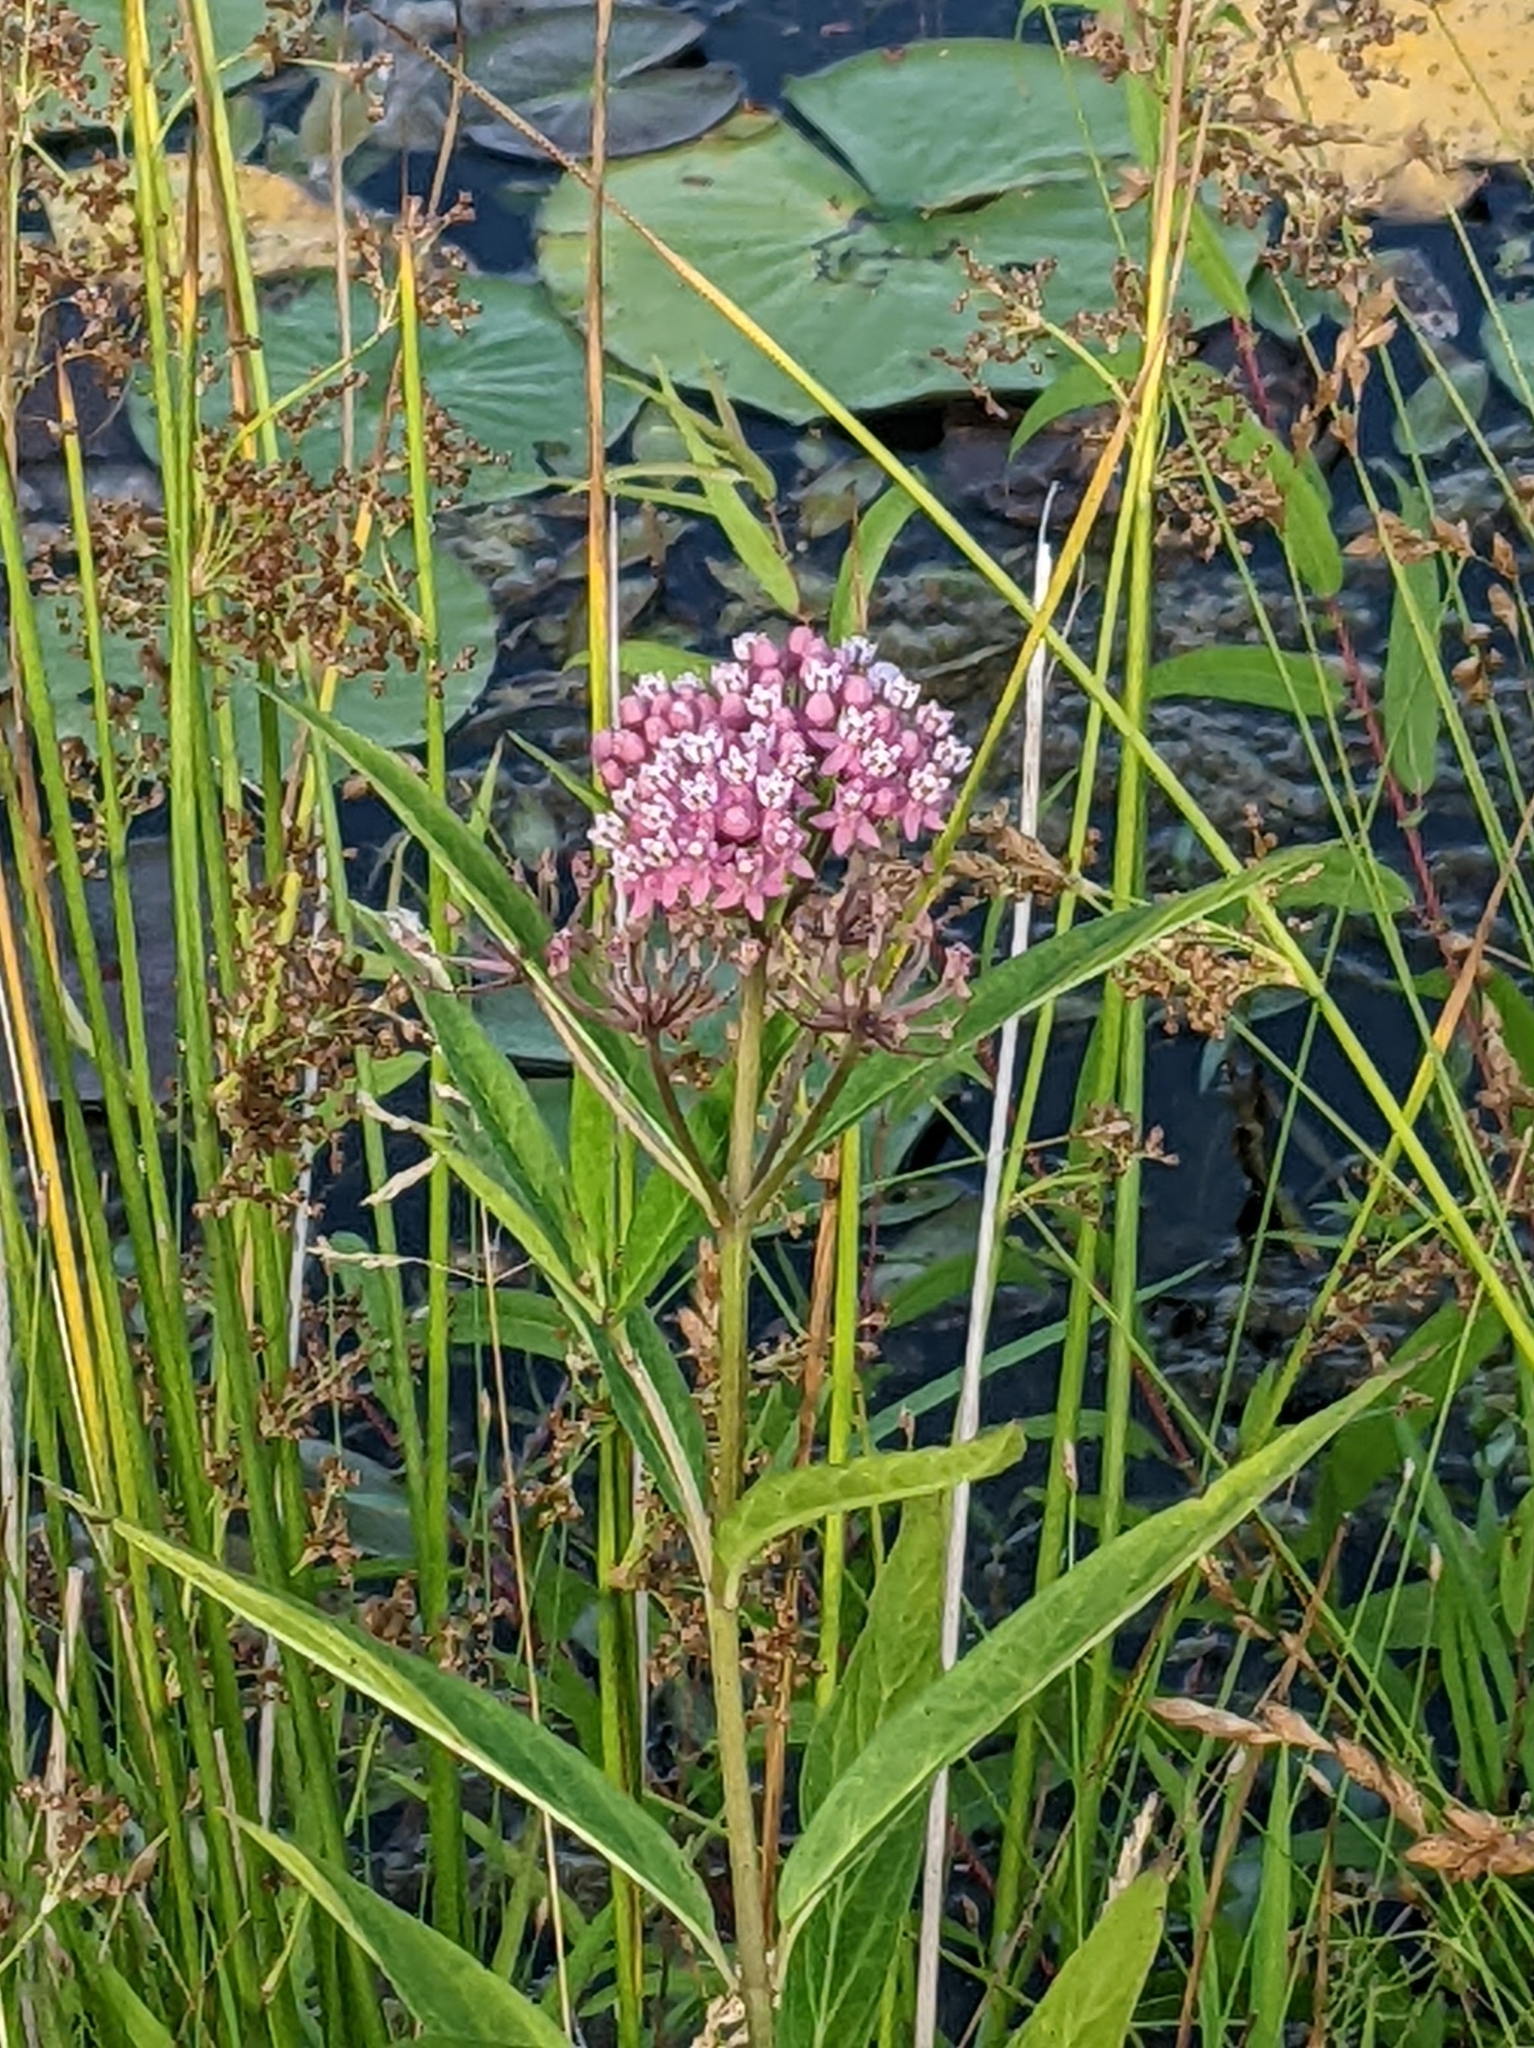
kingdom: Plantae
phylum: Tracheophyta
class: Magnoliopsida
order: Gentianales
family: Apocynaceae
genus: Asclepias
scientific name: Asclepias incarnata
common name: Swamp milkweed
